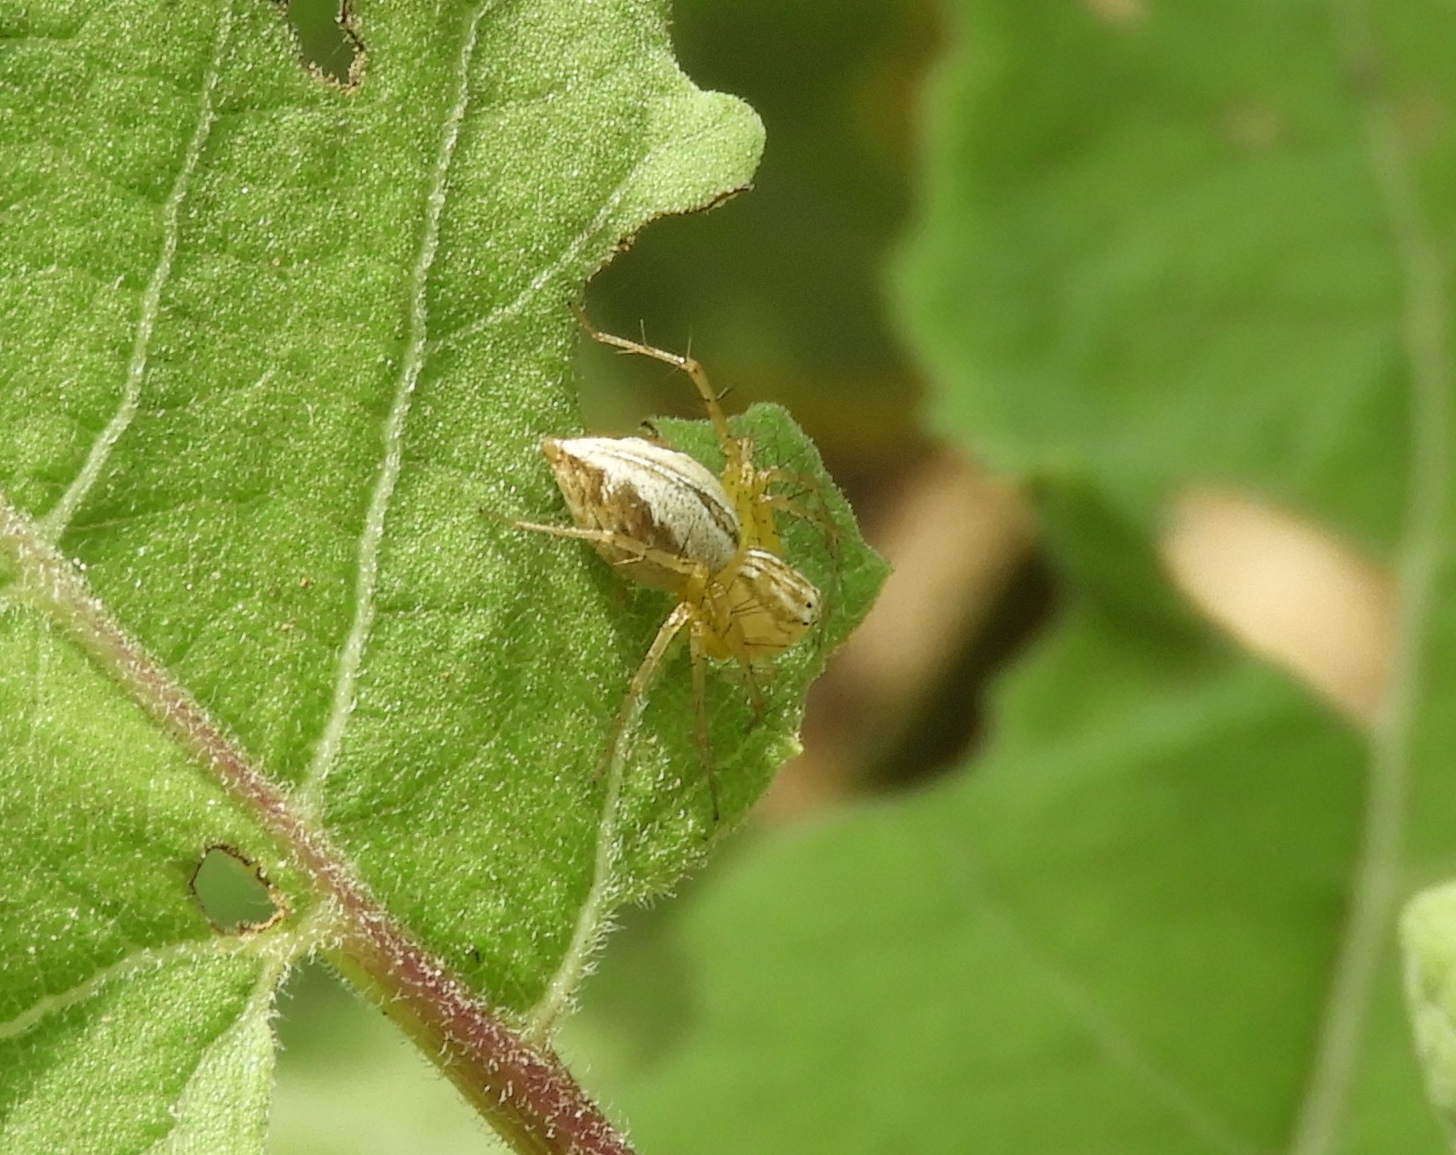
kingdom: Animalia
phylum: Arthropoda
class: Arachnida
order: Araneae
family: Oxyopidae
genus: Oxyopes
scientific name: Oxyopes
